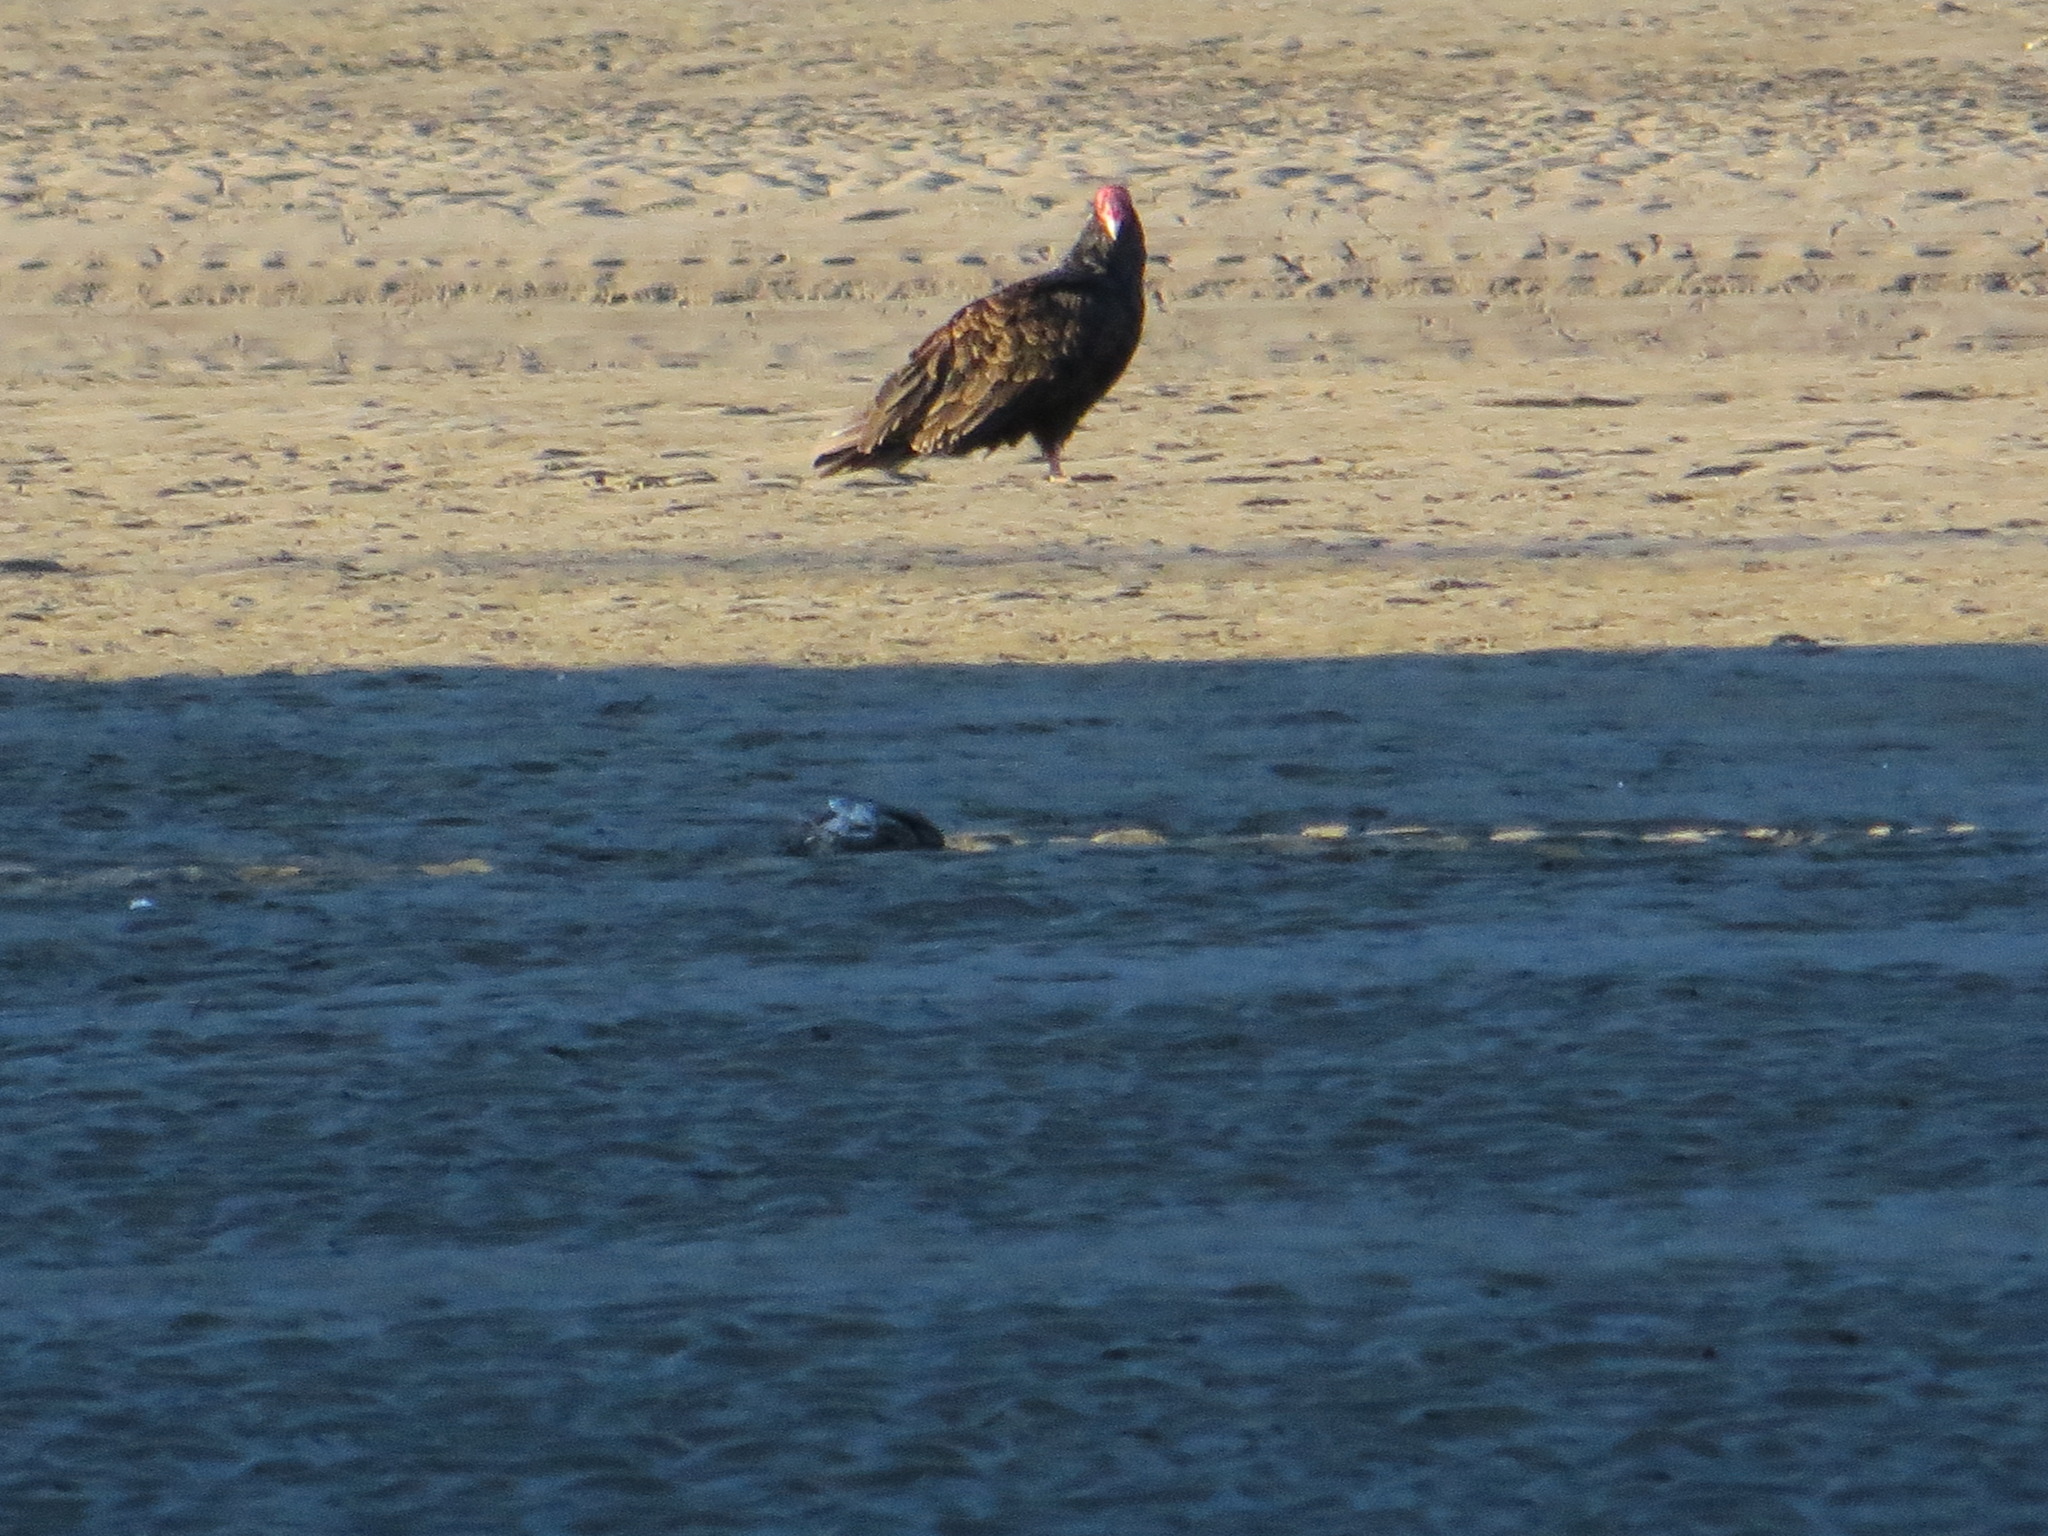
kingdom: Animalia
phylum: Chordata
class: Aves
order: Accipitriformes
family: Cathartidae
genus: Cathartes
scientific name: Cathartes aura
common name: Turkey vulture
